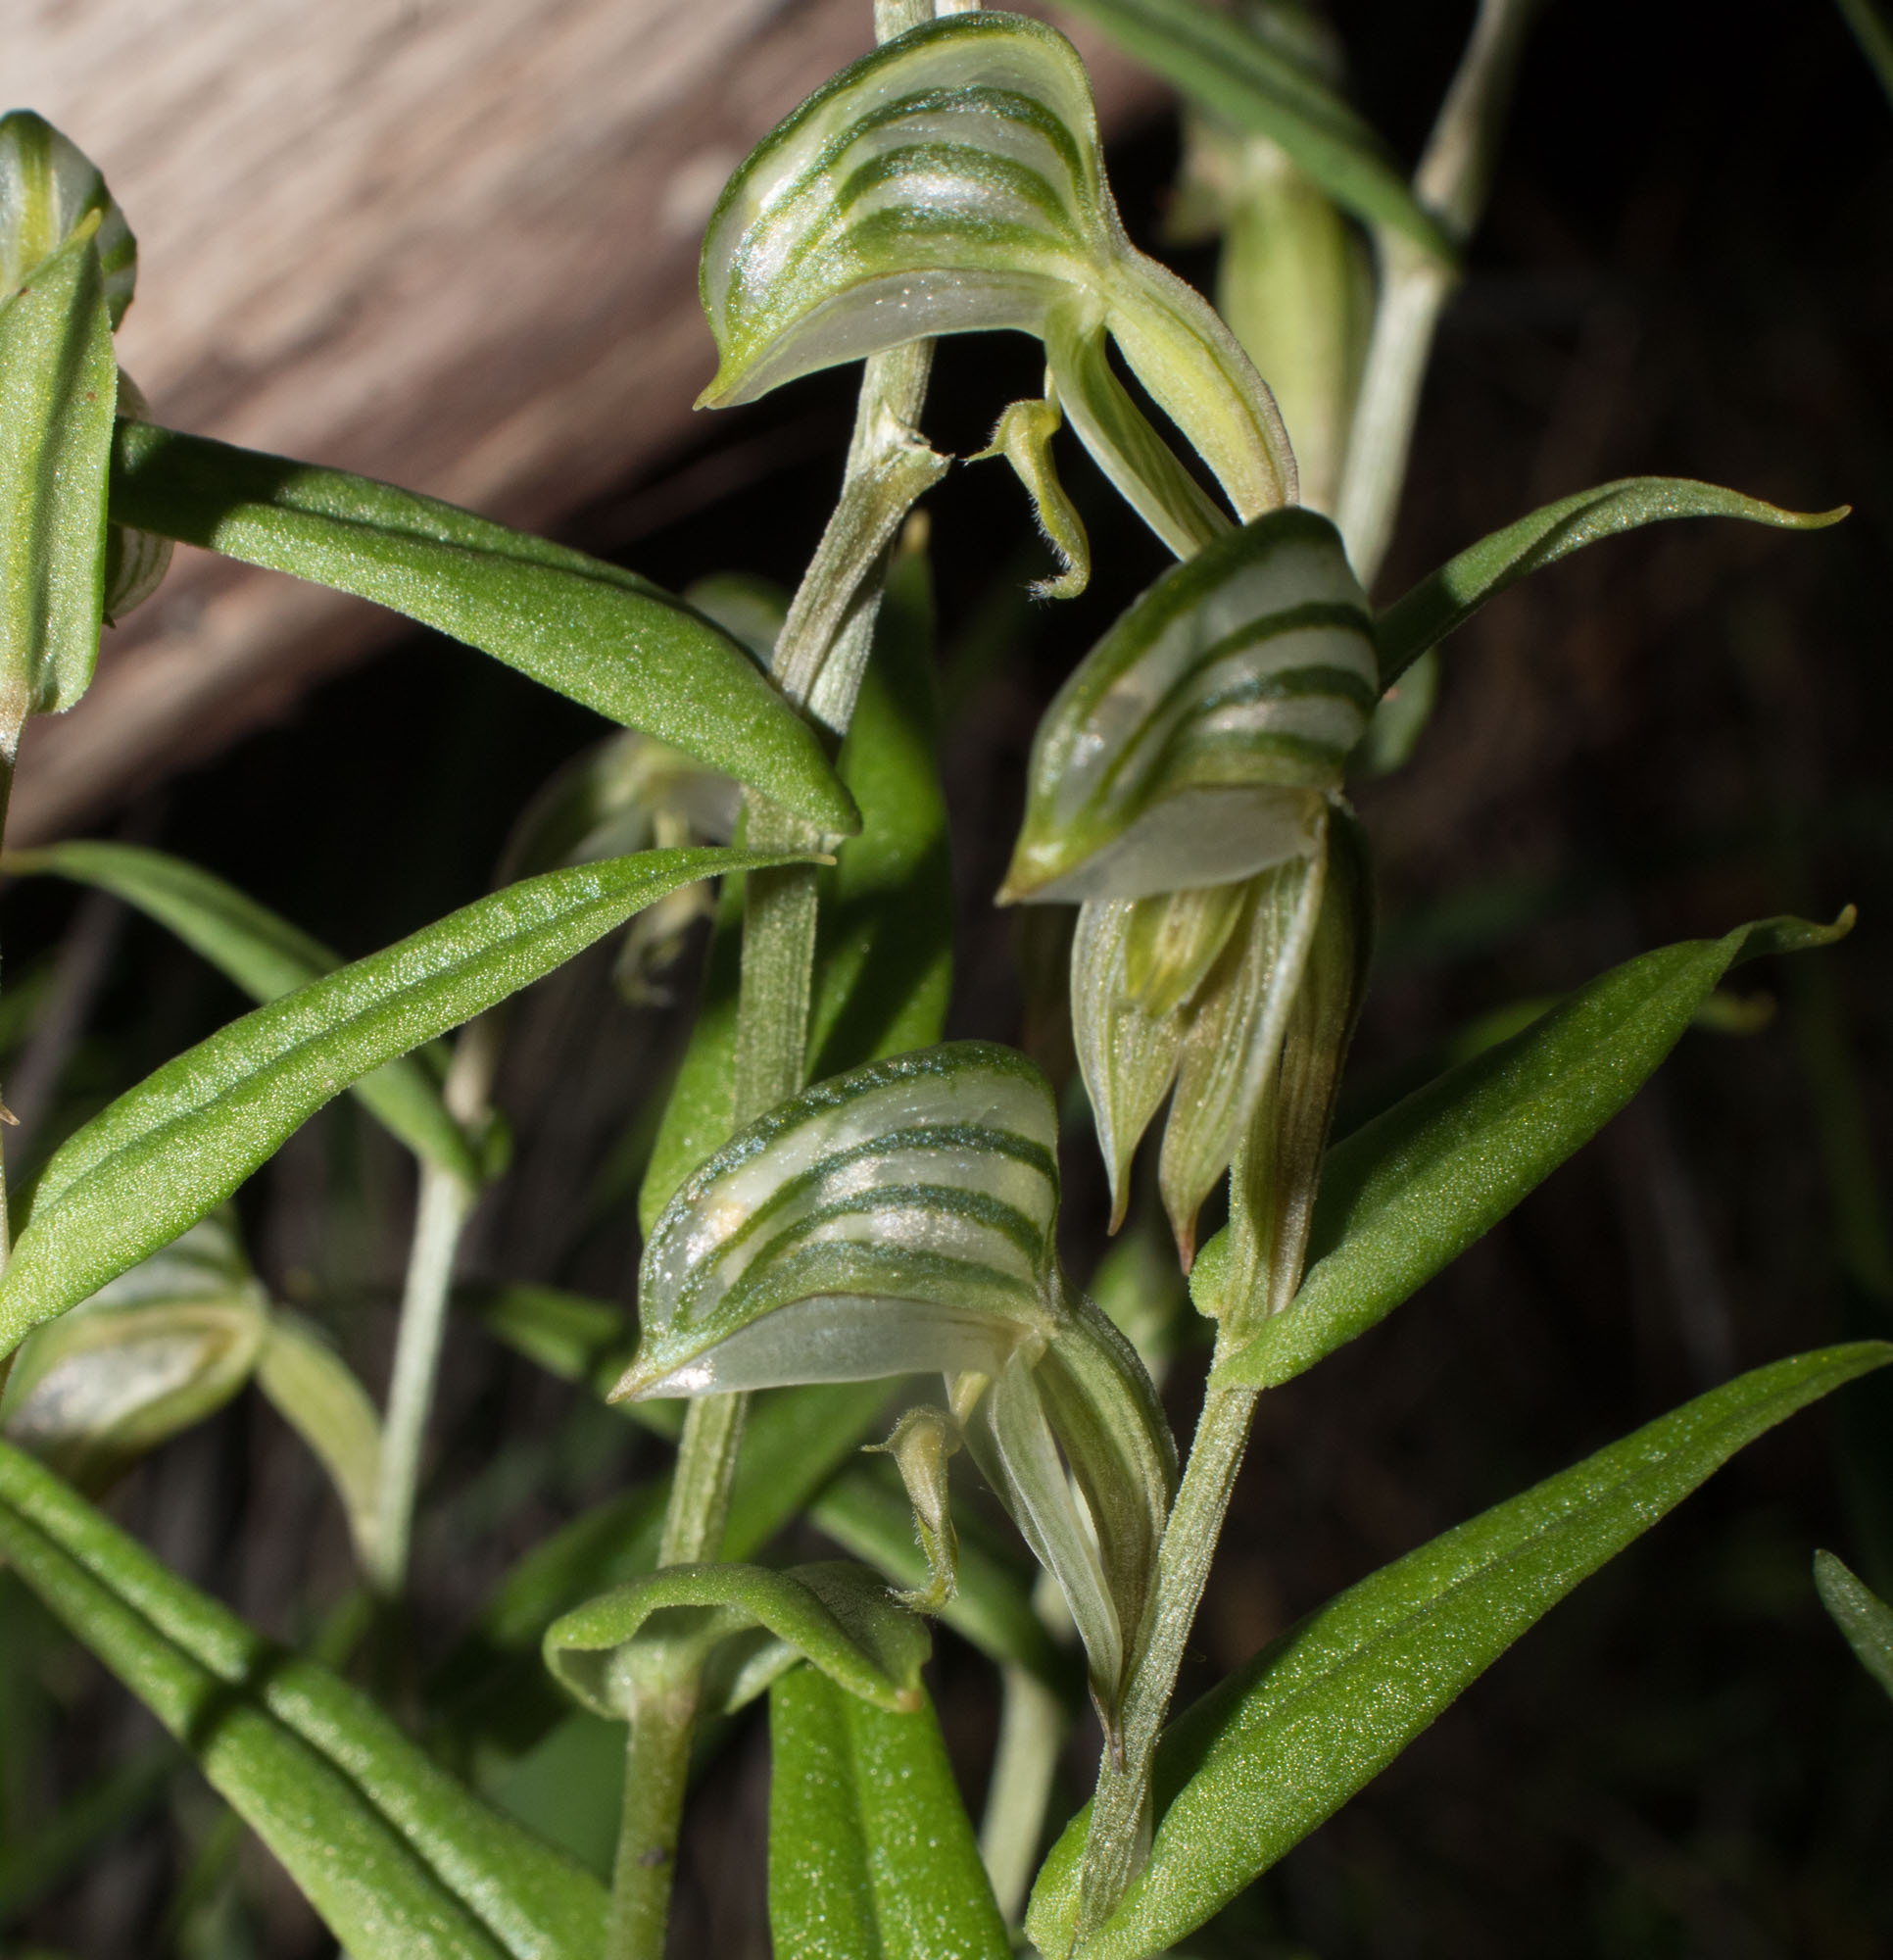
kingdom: Plantae
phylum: Tracheophyta
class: Liliopsida
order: Asparagales
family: Orchidaceae
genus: Pterostylis
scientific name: Pterostylis vittata
